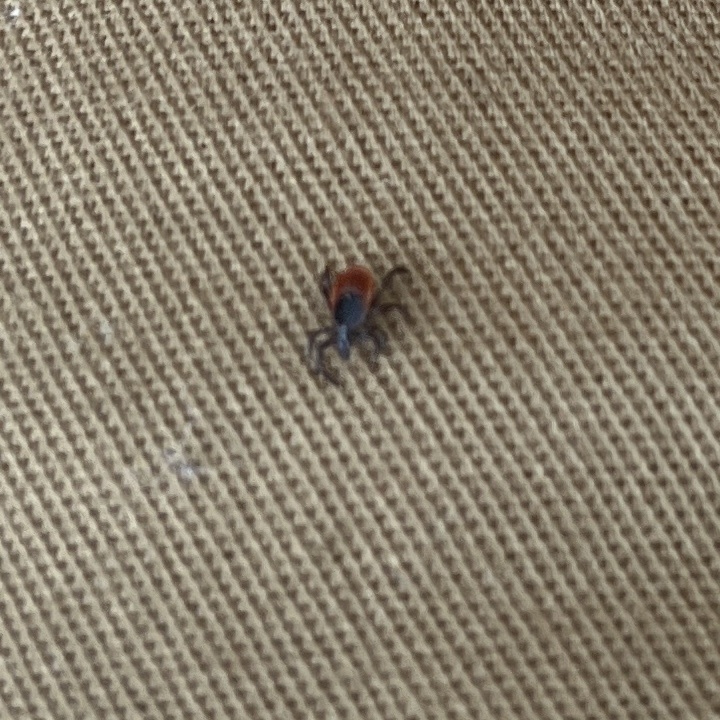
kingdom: Animalia
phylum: Arthropoda
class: Arachnida
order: Ixodida
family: Ixodidae
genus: Ixodes
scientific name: Ixodes scapularis
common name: Black legged tick
